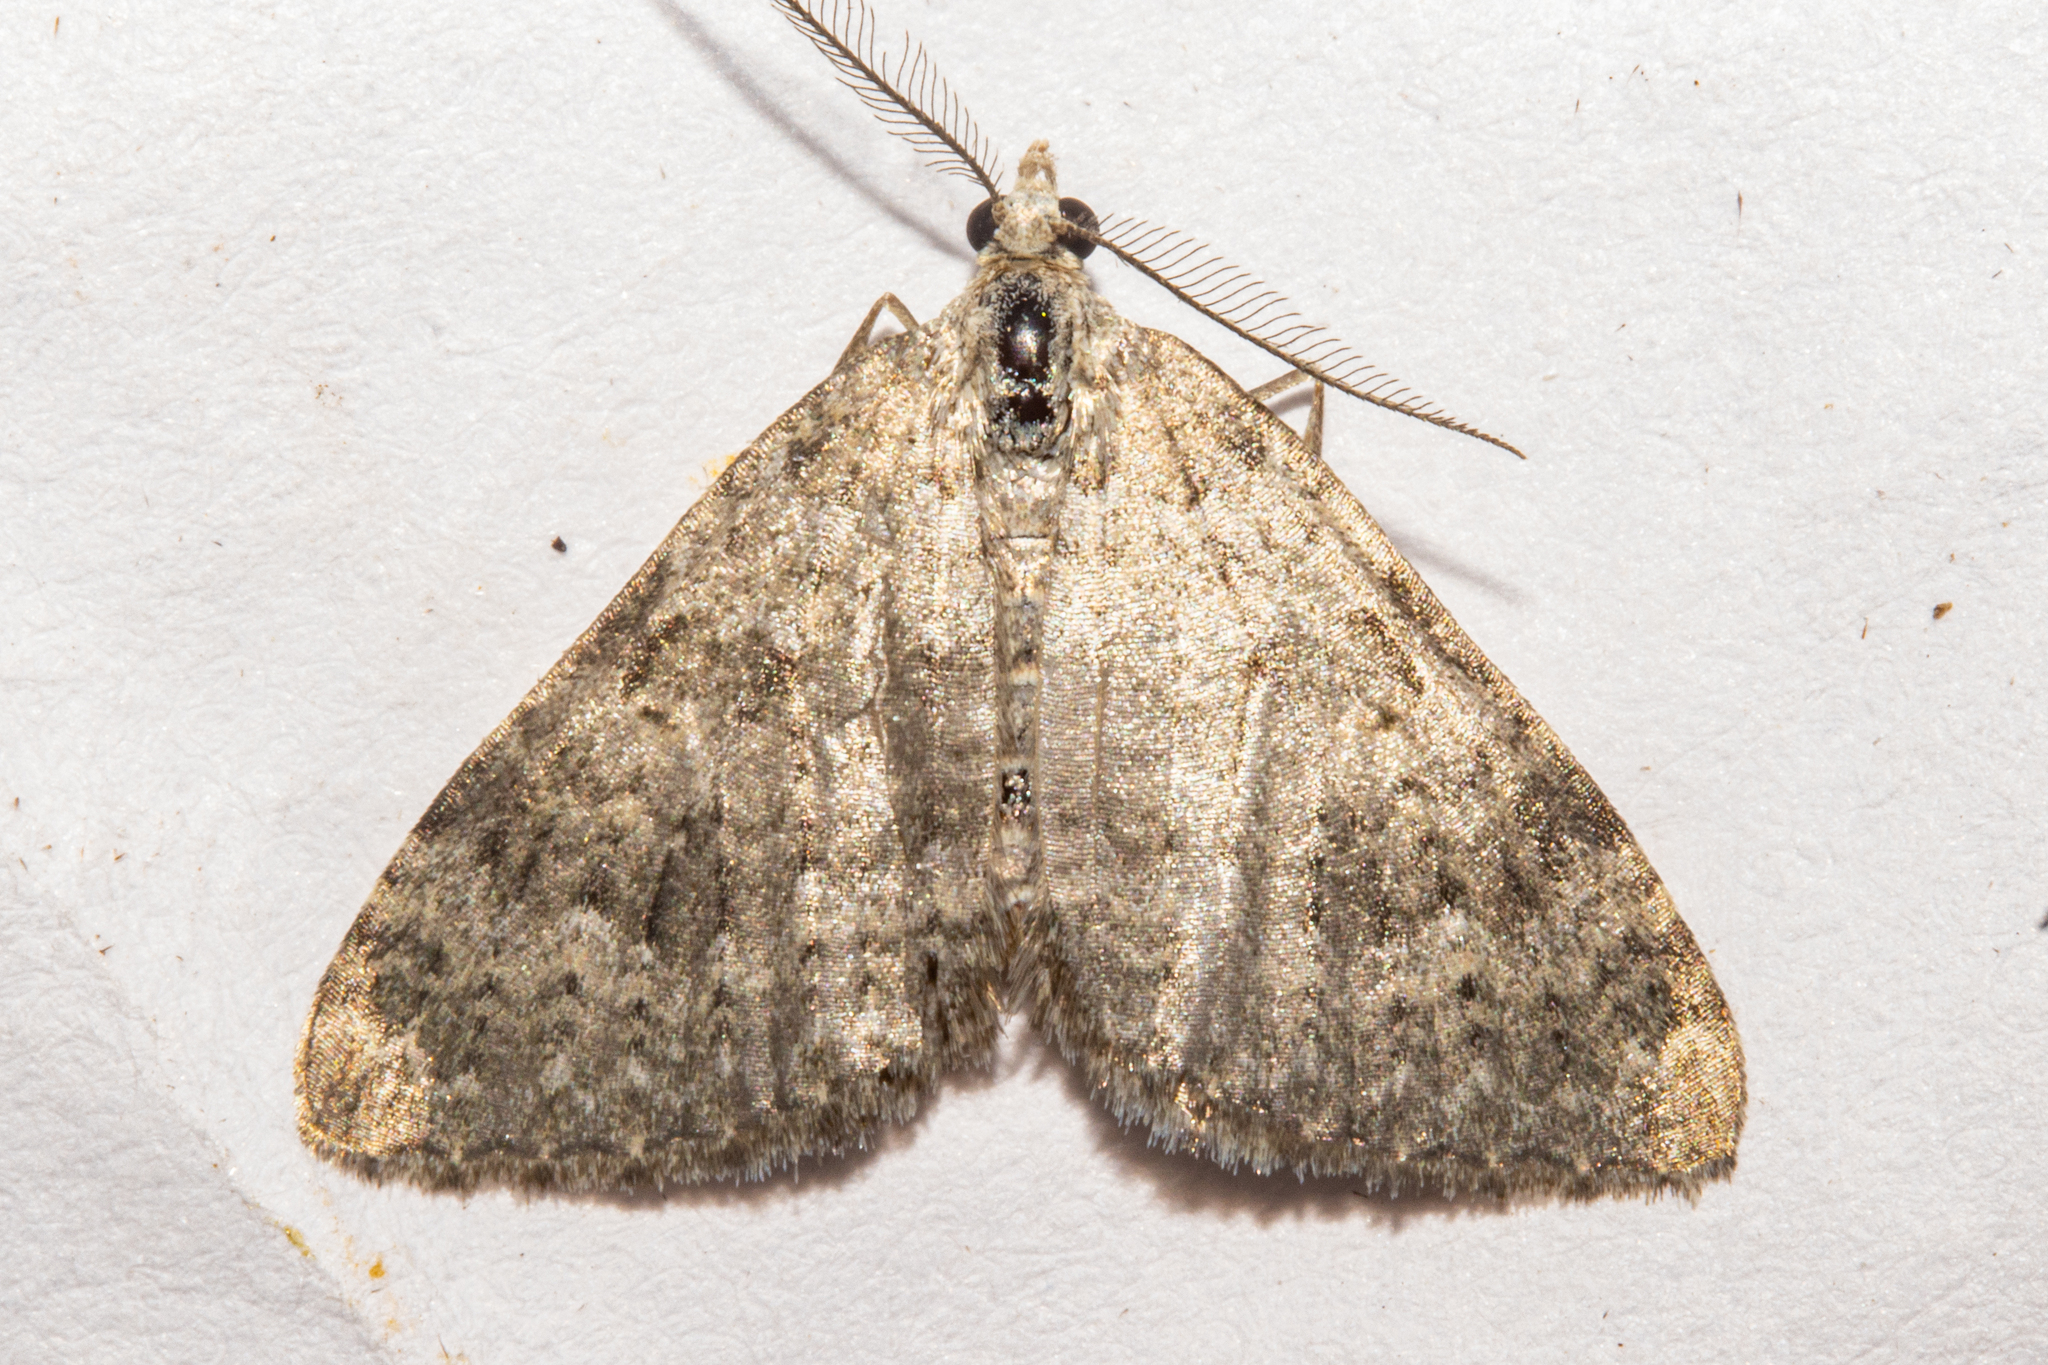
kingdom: Animalia
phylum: Arthropoda
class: Insecta
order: Lepidoptera
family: Geometridae
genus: Helastia
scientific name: Helastia corcularia
